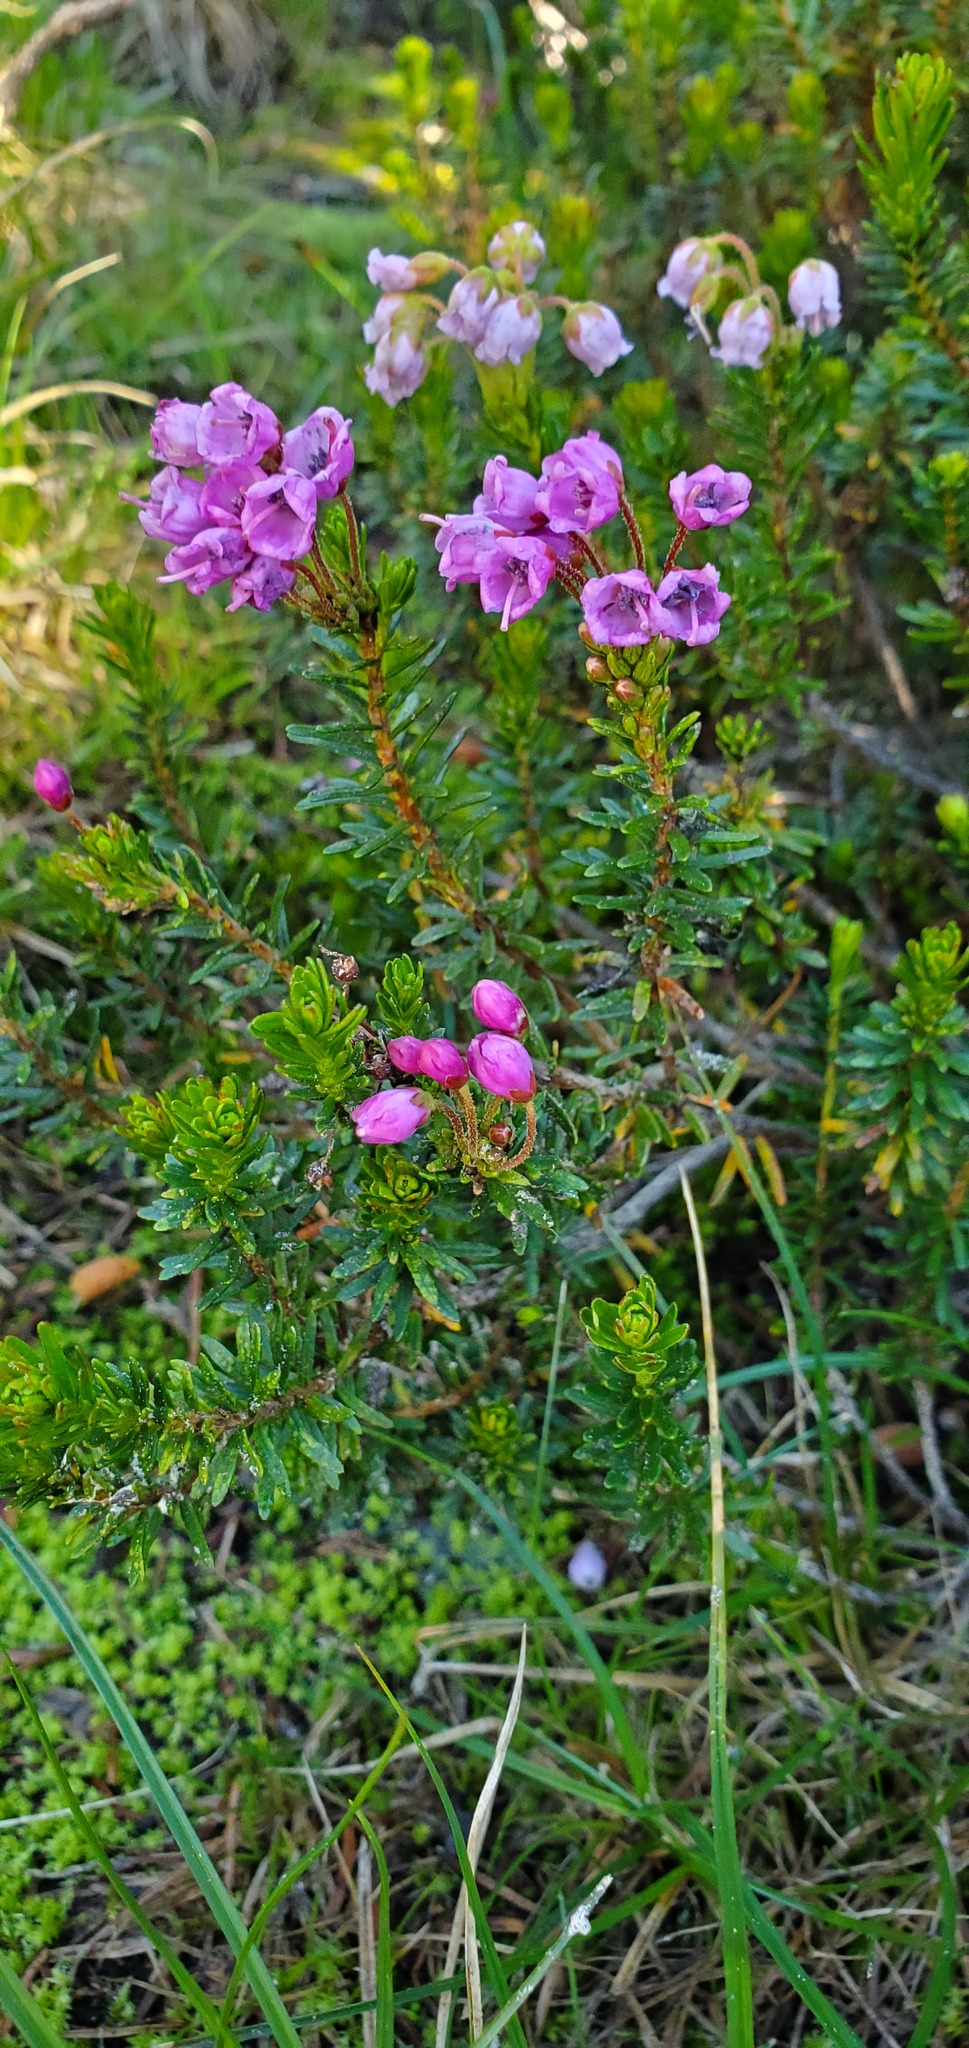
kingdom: Plantae
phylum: Tracheophyta
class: Magnoliopsida
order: Ericales
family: Ericaceae
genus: Phyllodoce
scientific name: Phyllodoce empetriformis
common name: Pink mountain heather
